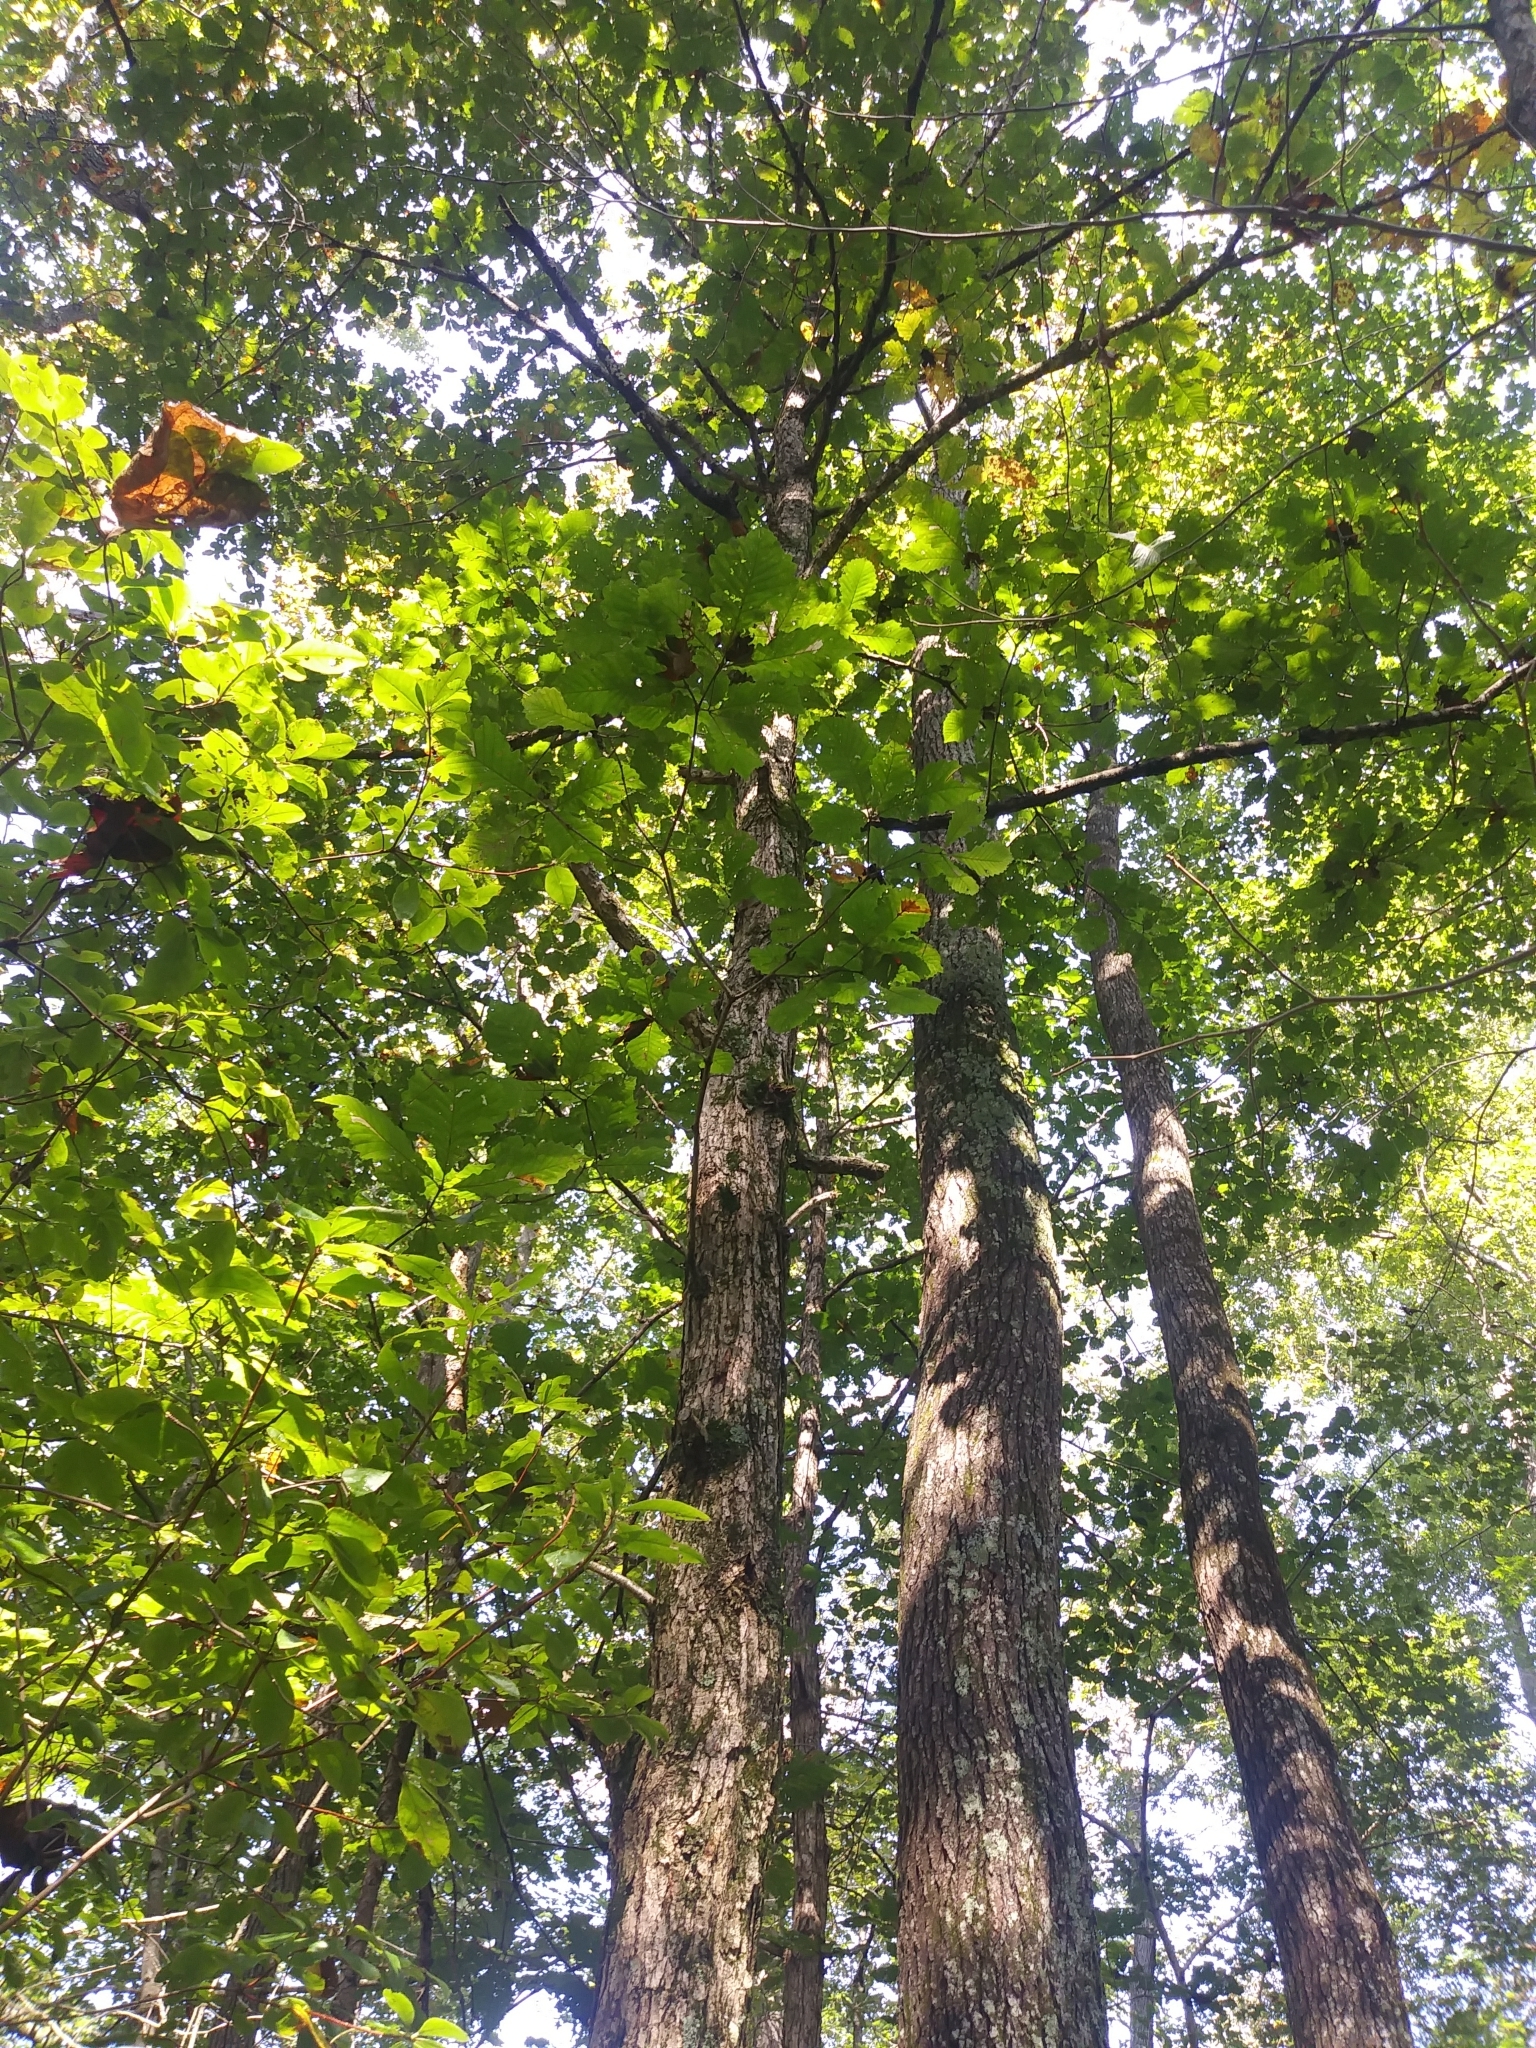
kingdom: Plantae
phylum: Tracheophyta
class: Magnoliopsida
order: Fagales
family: Fagaceae
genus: Quercus
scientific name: Quercus michauxii
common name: Swamp chestnut oak
